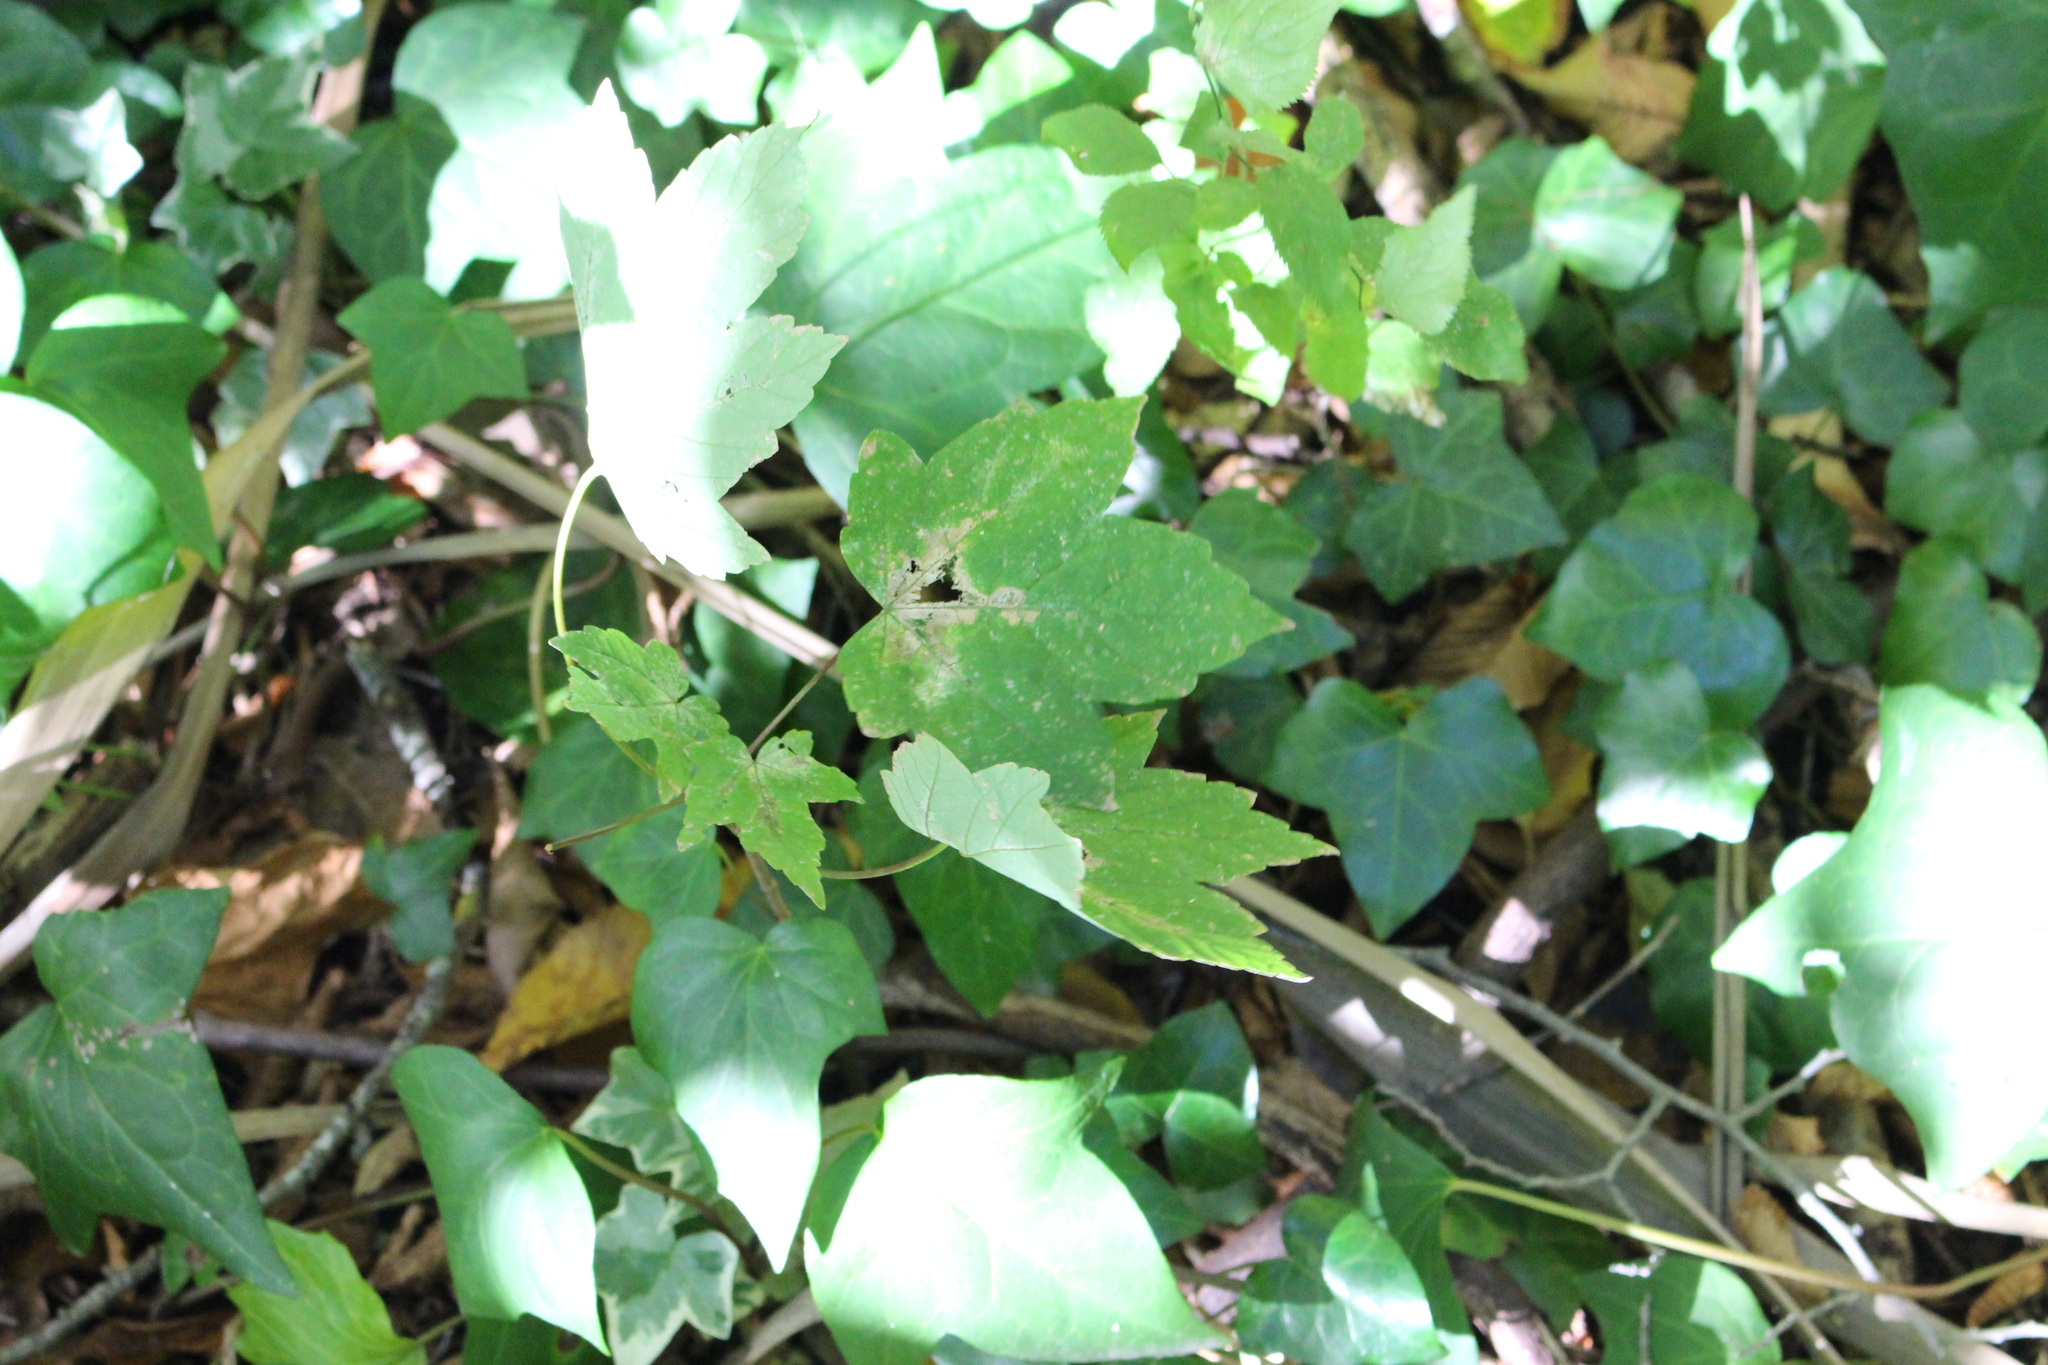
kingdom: Plantae
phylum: Tracheophyta
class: Magnoliopsida
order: Sapindales
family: Sapindaceae
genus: Acer
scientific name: Acer pseudoplatanus
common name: Sycamore
